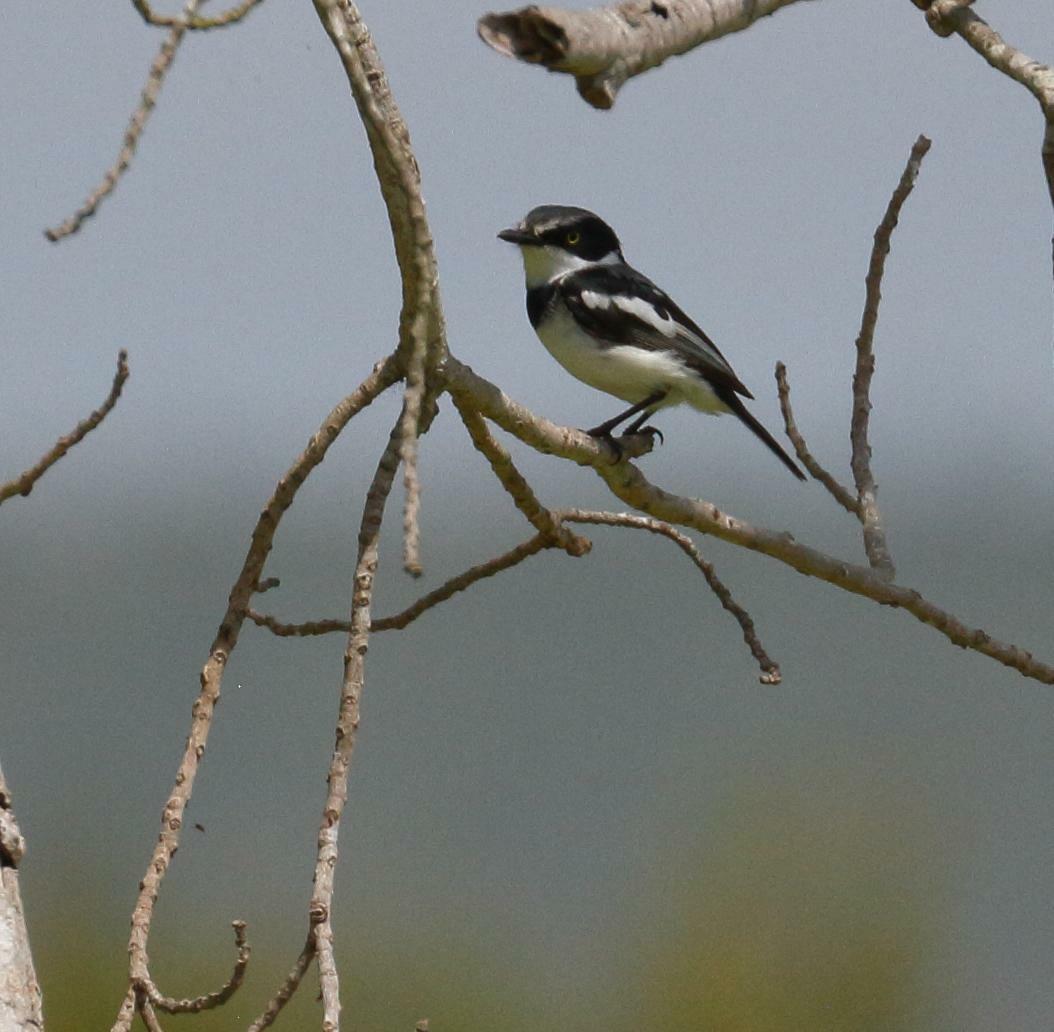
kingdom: Animalia
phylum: Chordata
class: Aves
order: Passeriformes
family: Platysteiridae
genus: Batis
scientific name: Batis molitor
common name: Chinspot batis
